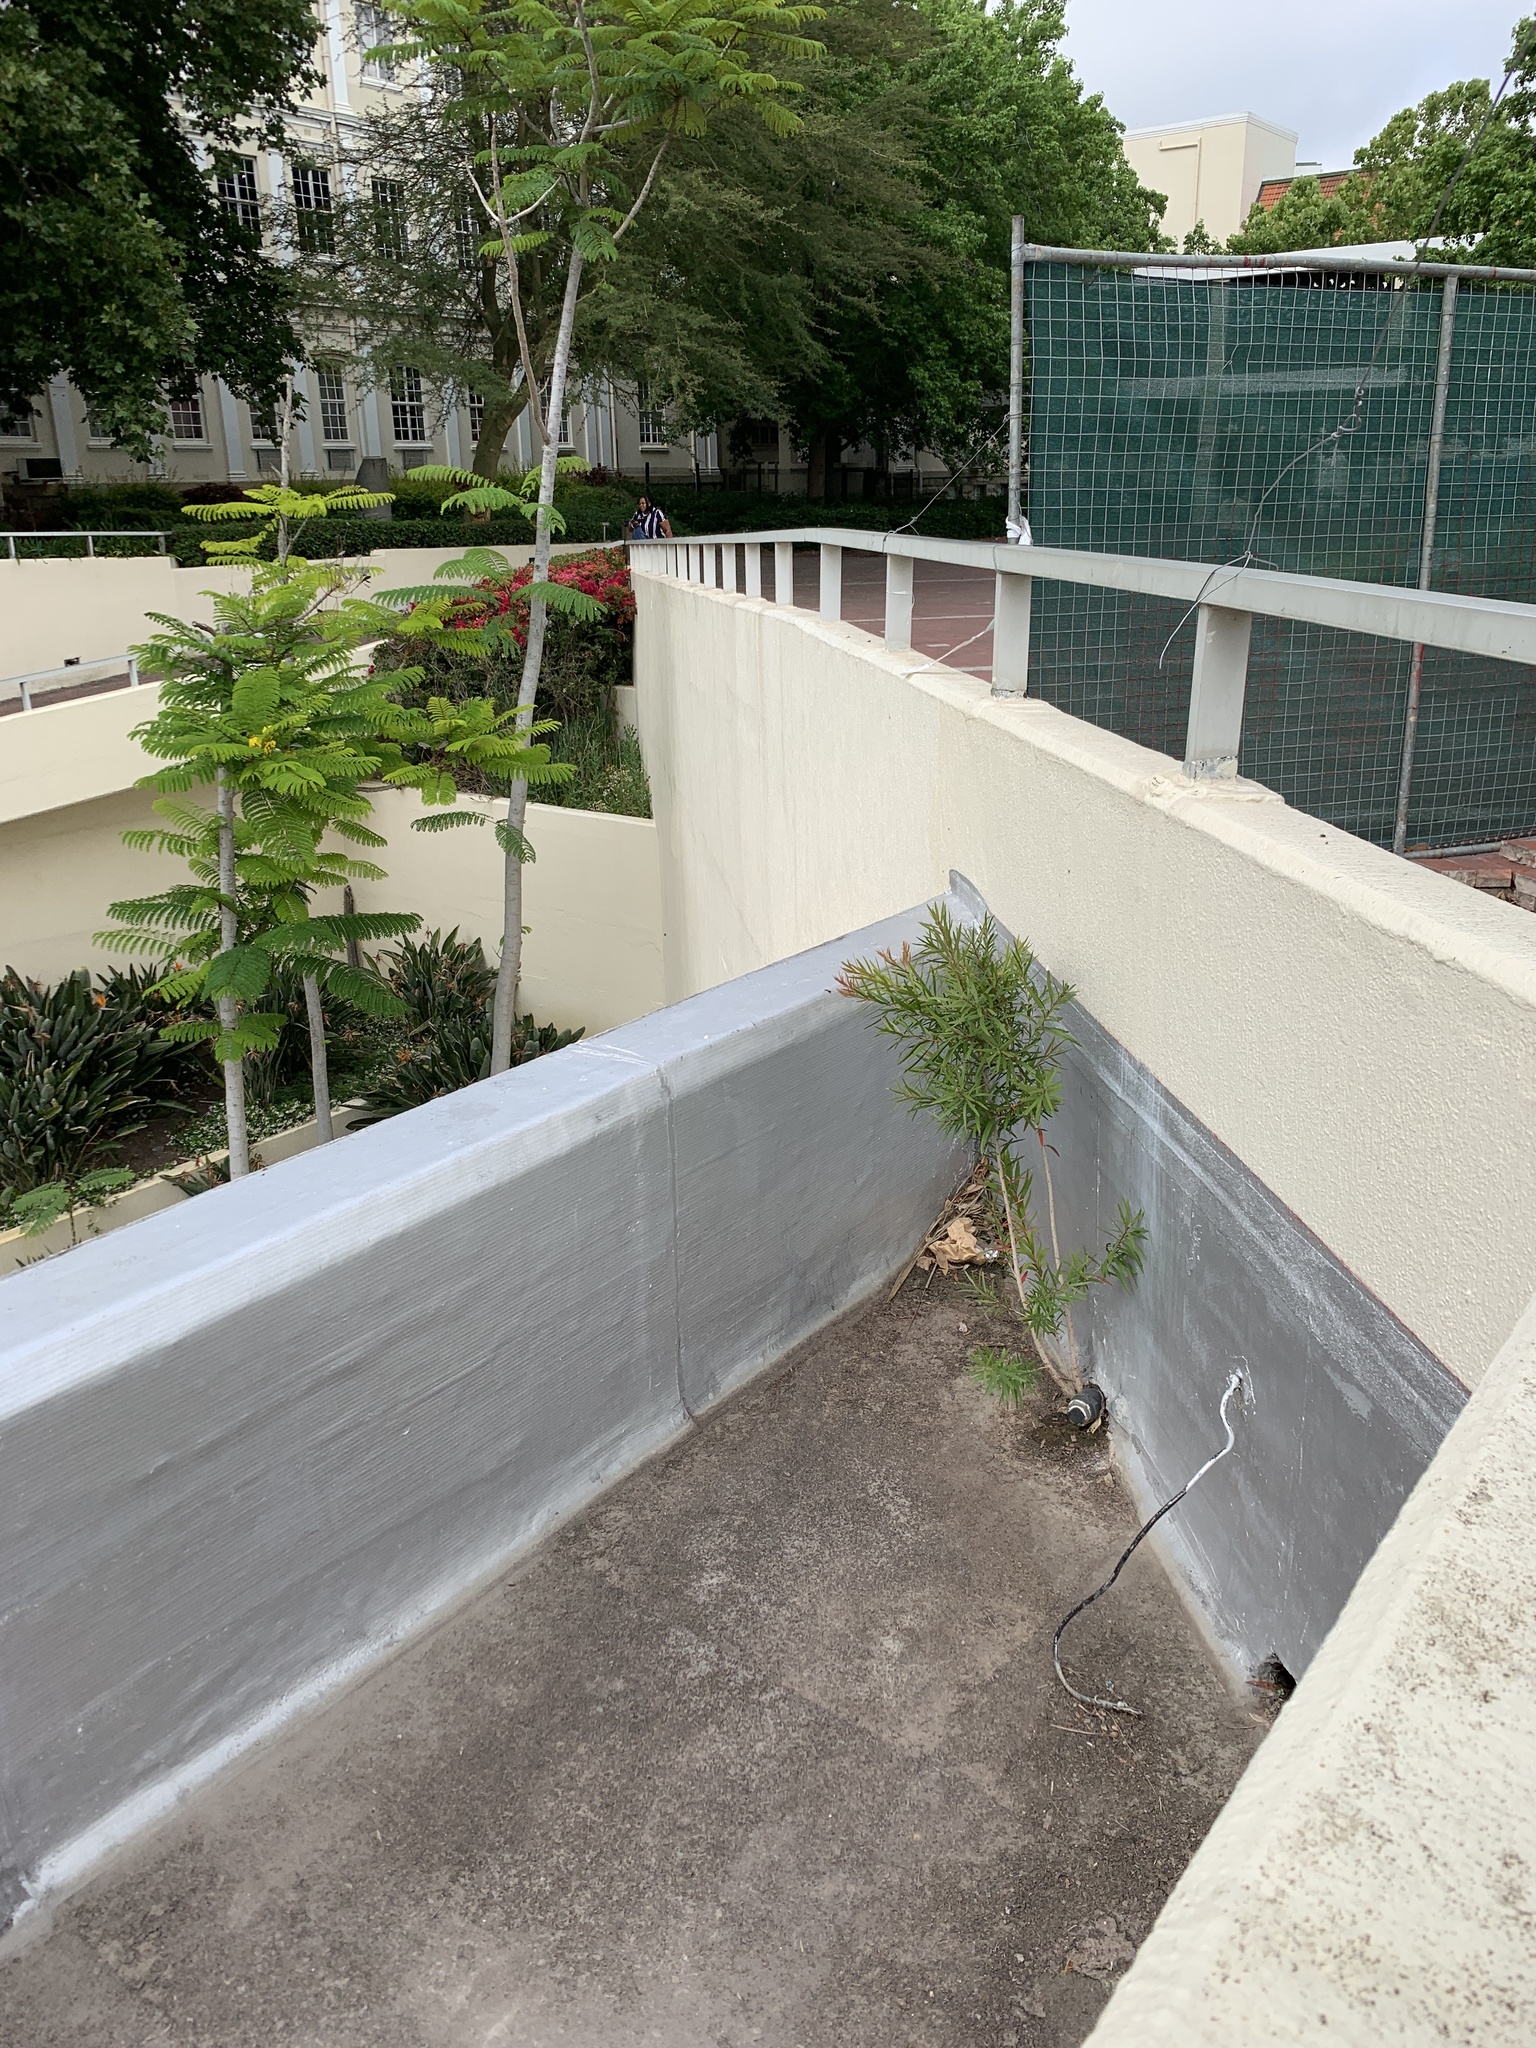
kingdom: Plantae
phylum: Tracheophyta
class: Magnoliopsida
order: Myrtales
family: Myrtaceae
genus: Callistemon
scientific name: Callistemon viminalis
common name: Drooping bottlebrush
